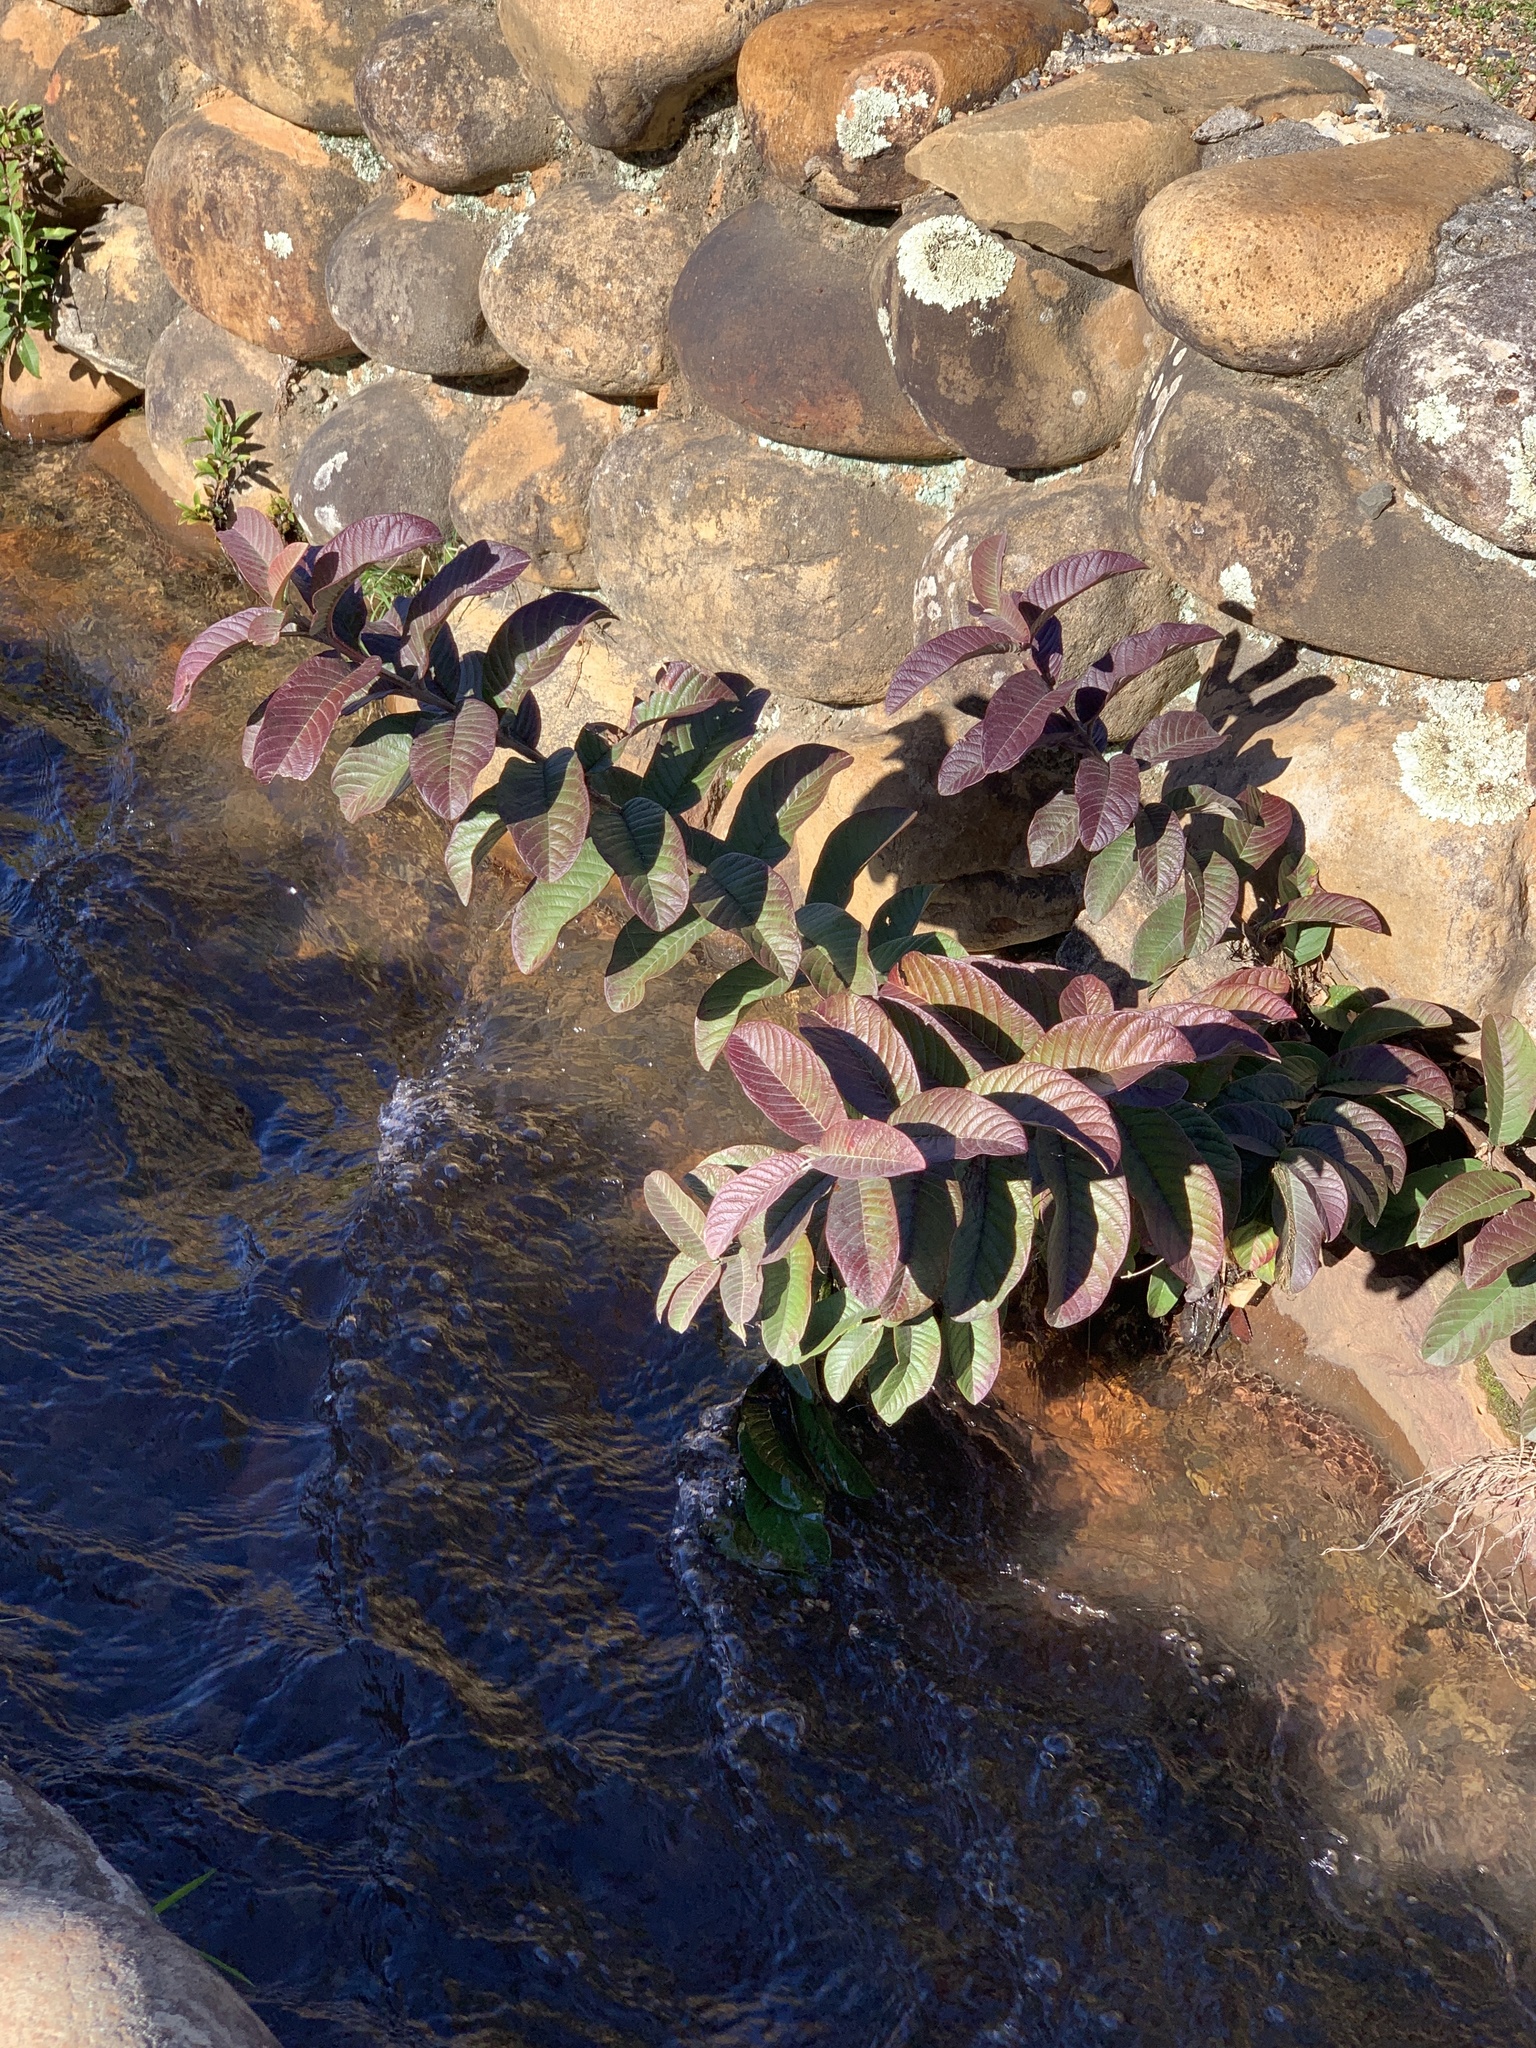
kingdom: Plantae
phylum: Tracheophyta
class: Magnoliopsida
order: Myrtales
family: Myrtaceae
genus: Psidium
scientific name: Psidium guajava
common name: Guava
